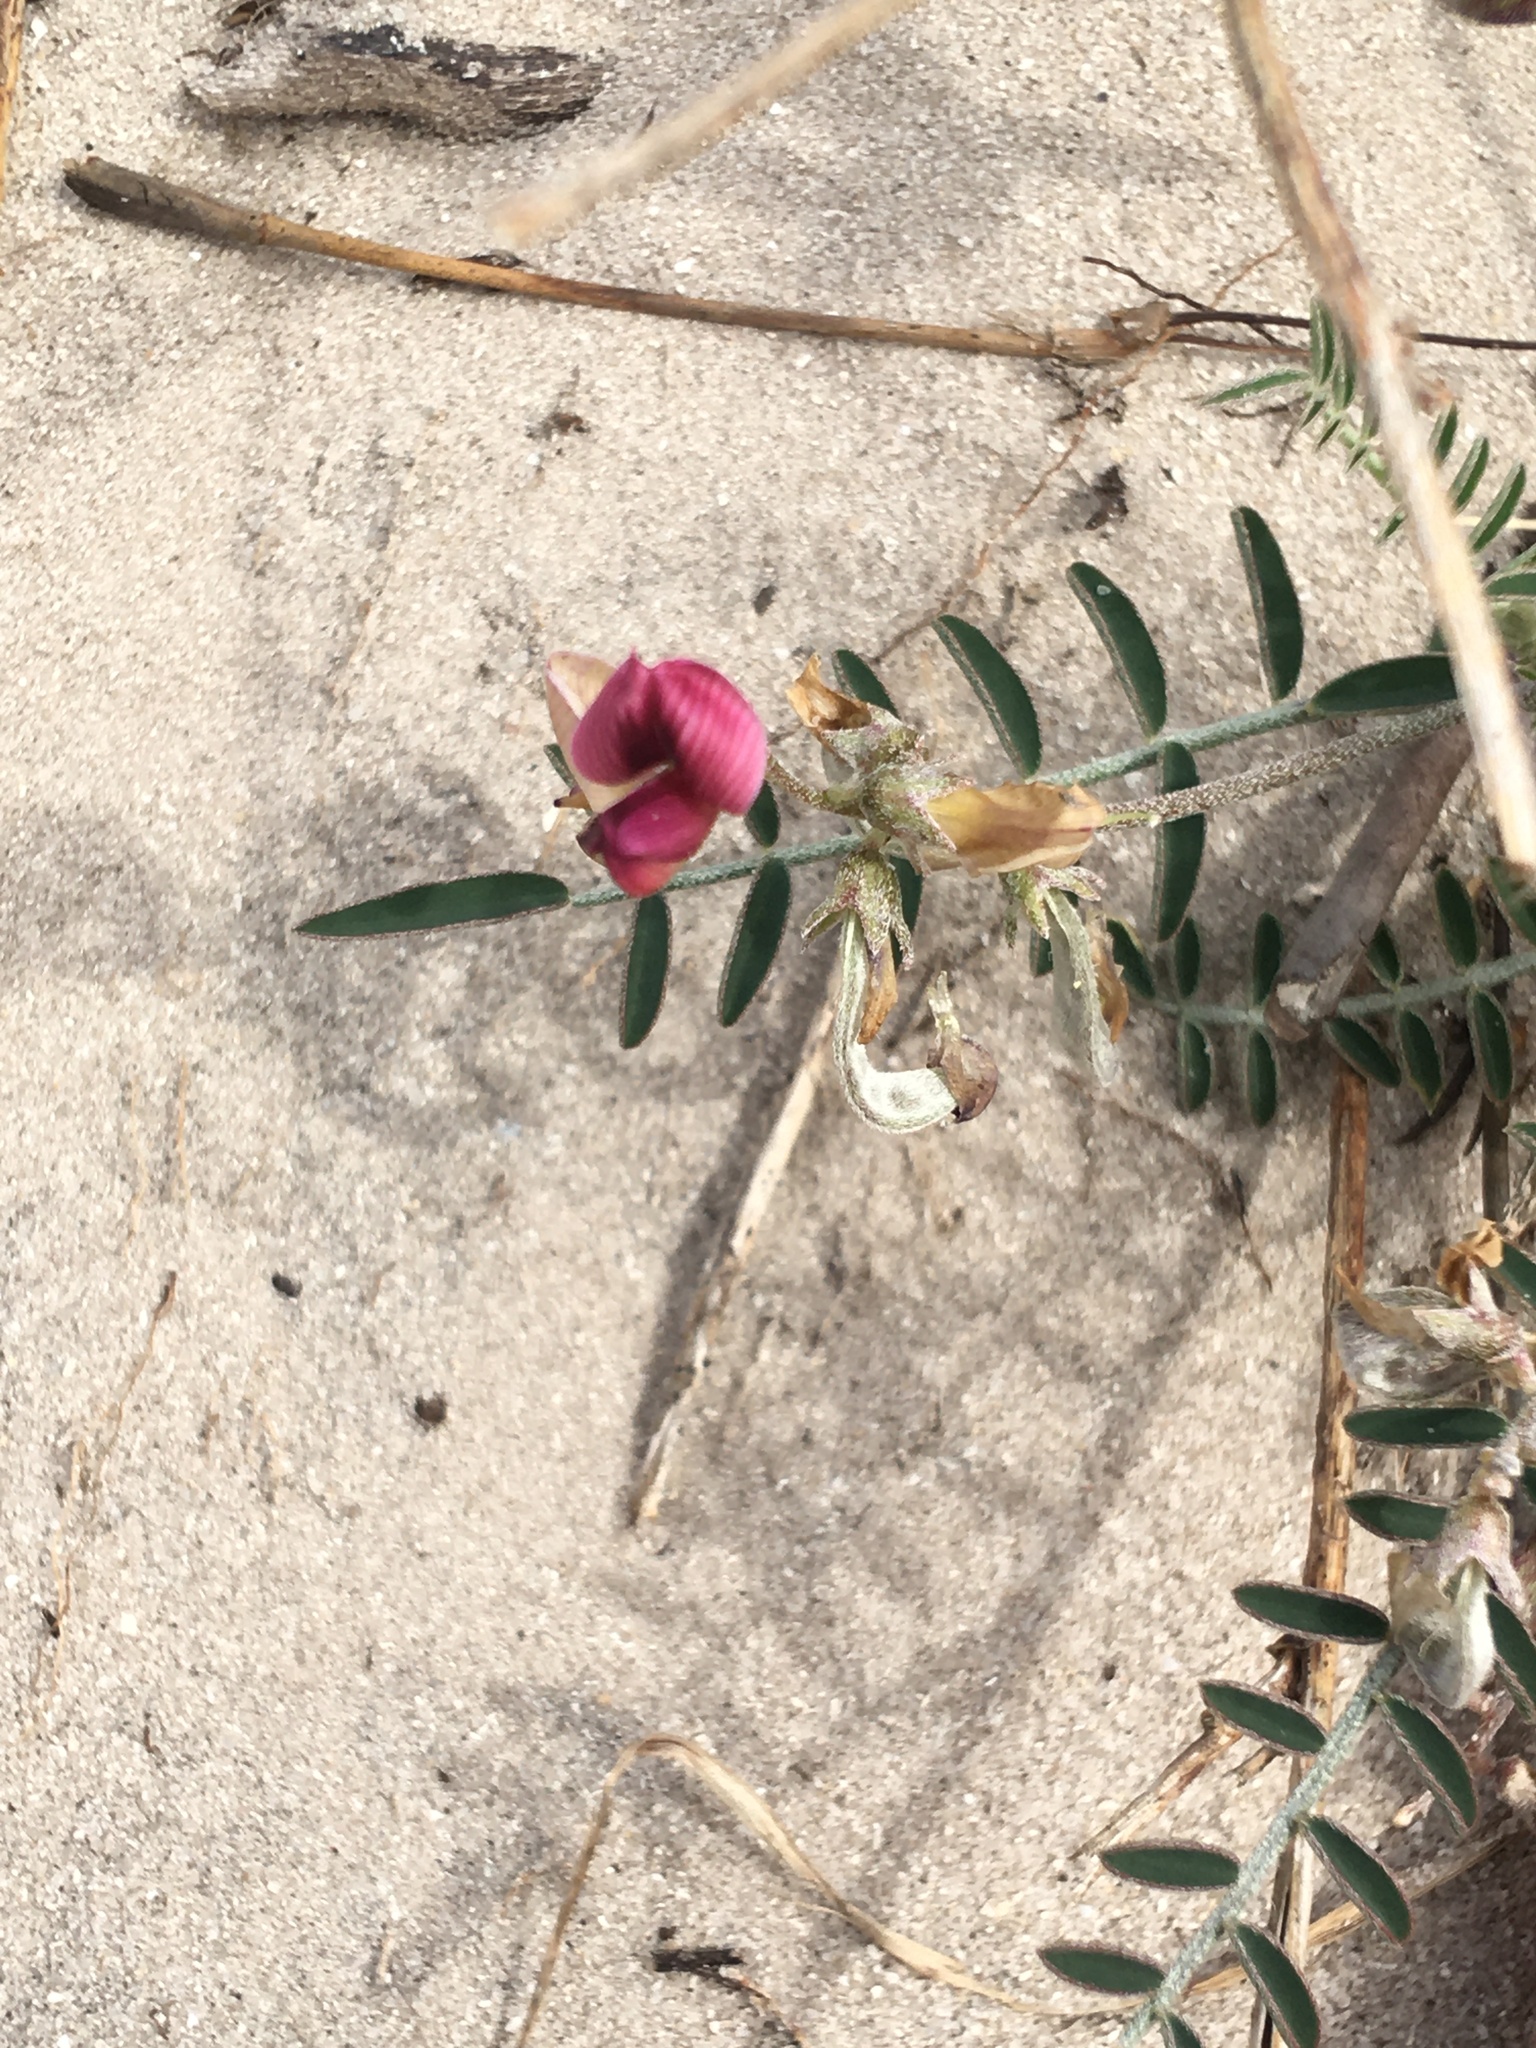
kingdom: Plantae
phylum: Tracheophyta
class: Magnoliopsida
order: Fabales
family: Fabaceae
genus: Lessertia
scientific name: Lessertia villosa
